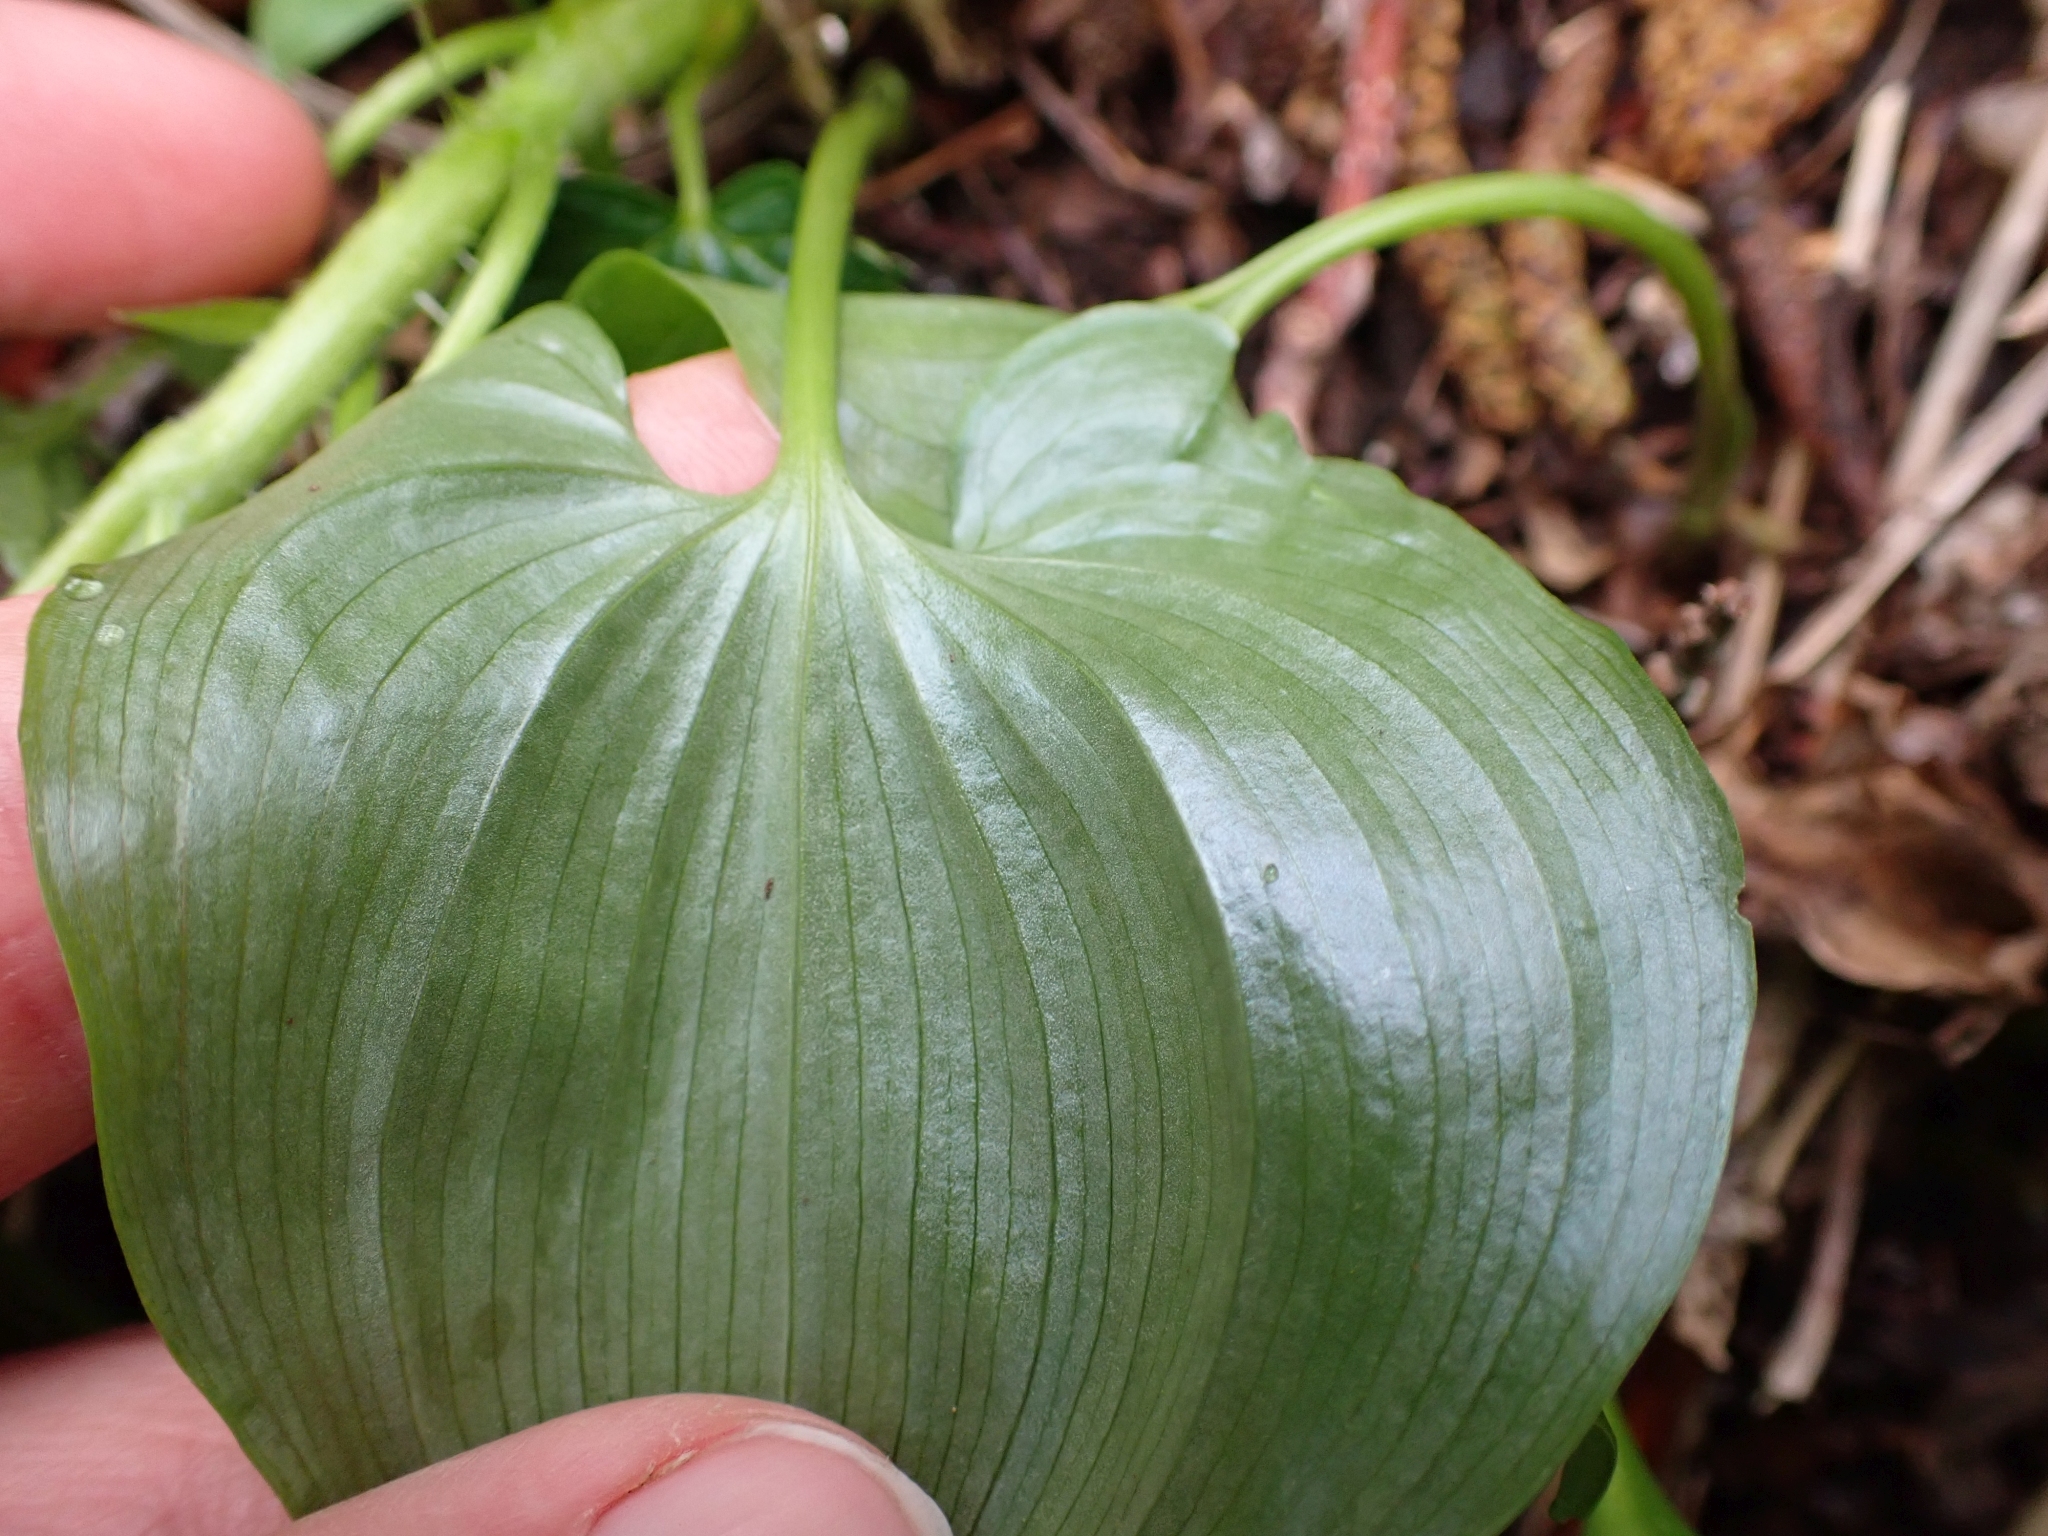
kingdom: Plantae
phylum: Tracheophyta
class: Liliopsida
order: Asparagales
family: Asparagaceae
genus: Maianthemum
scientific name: Maianthemum dilatatum
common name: False lily-of-the-valley
